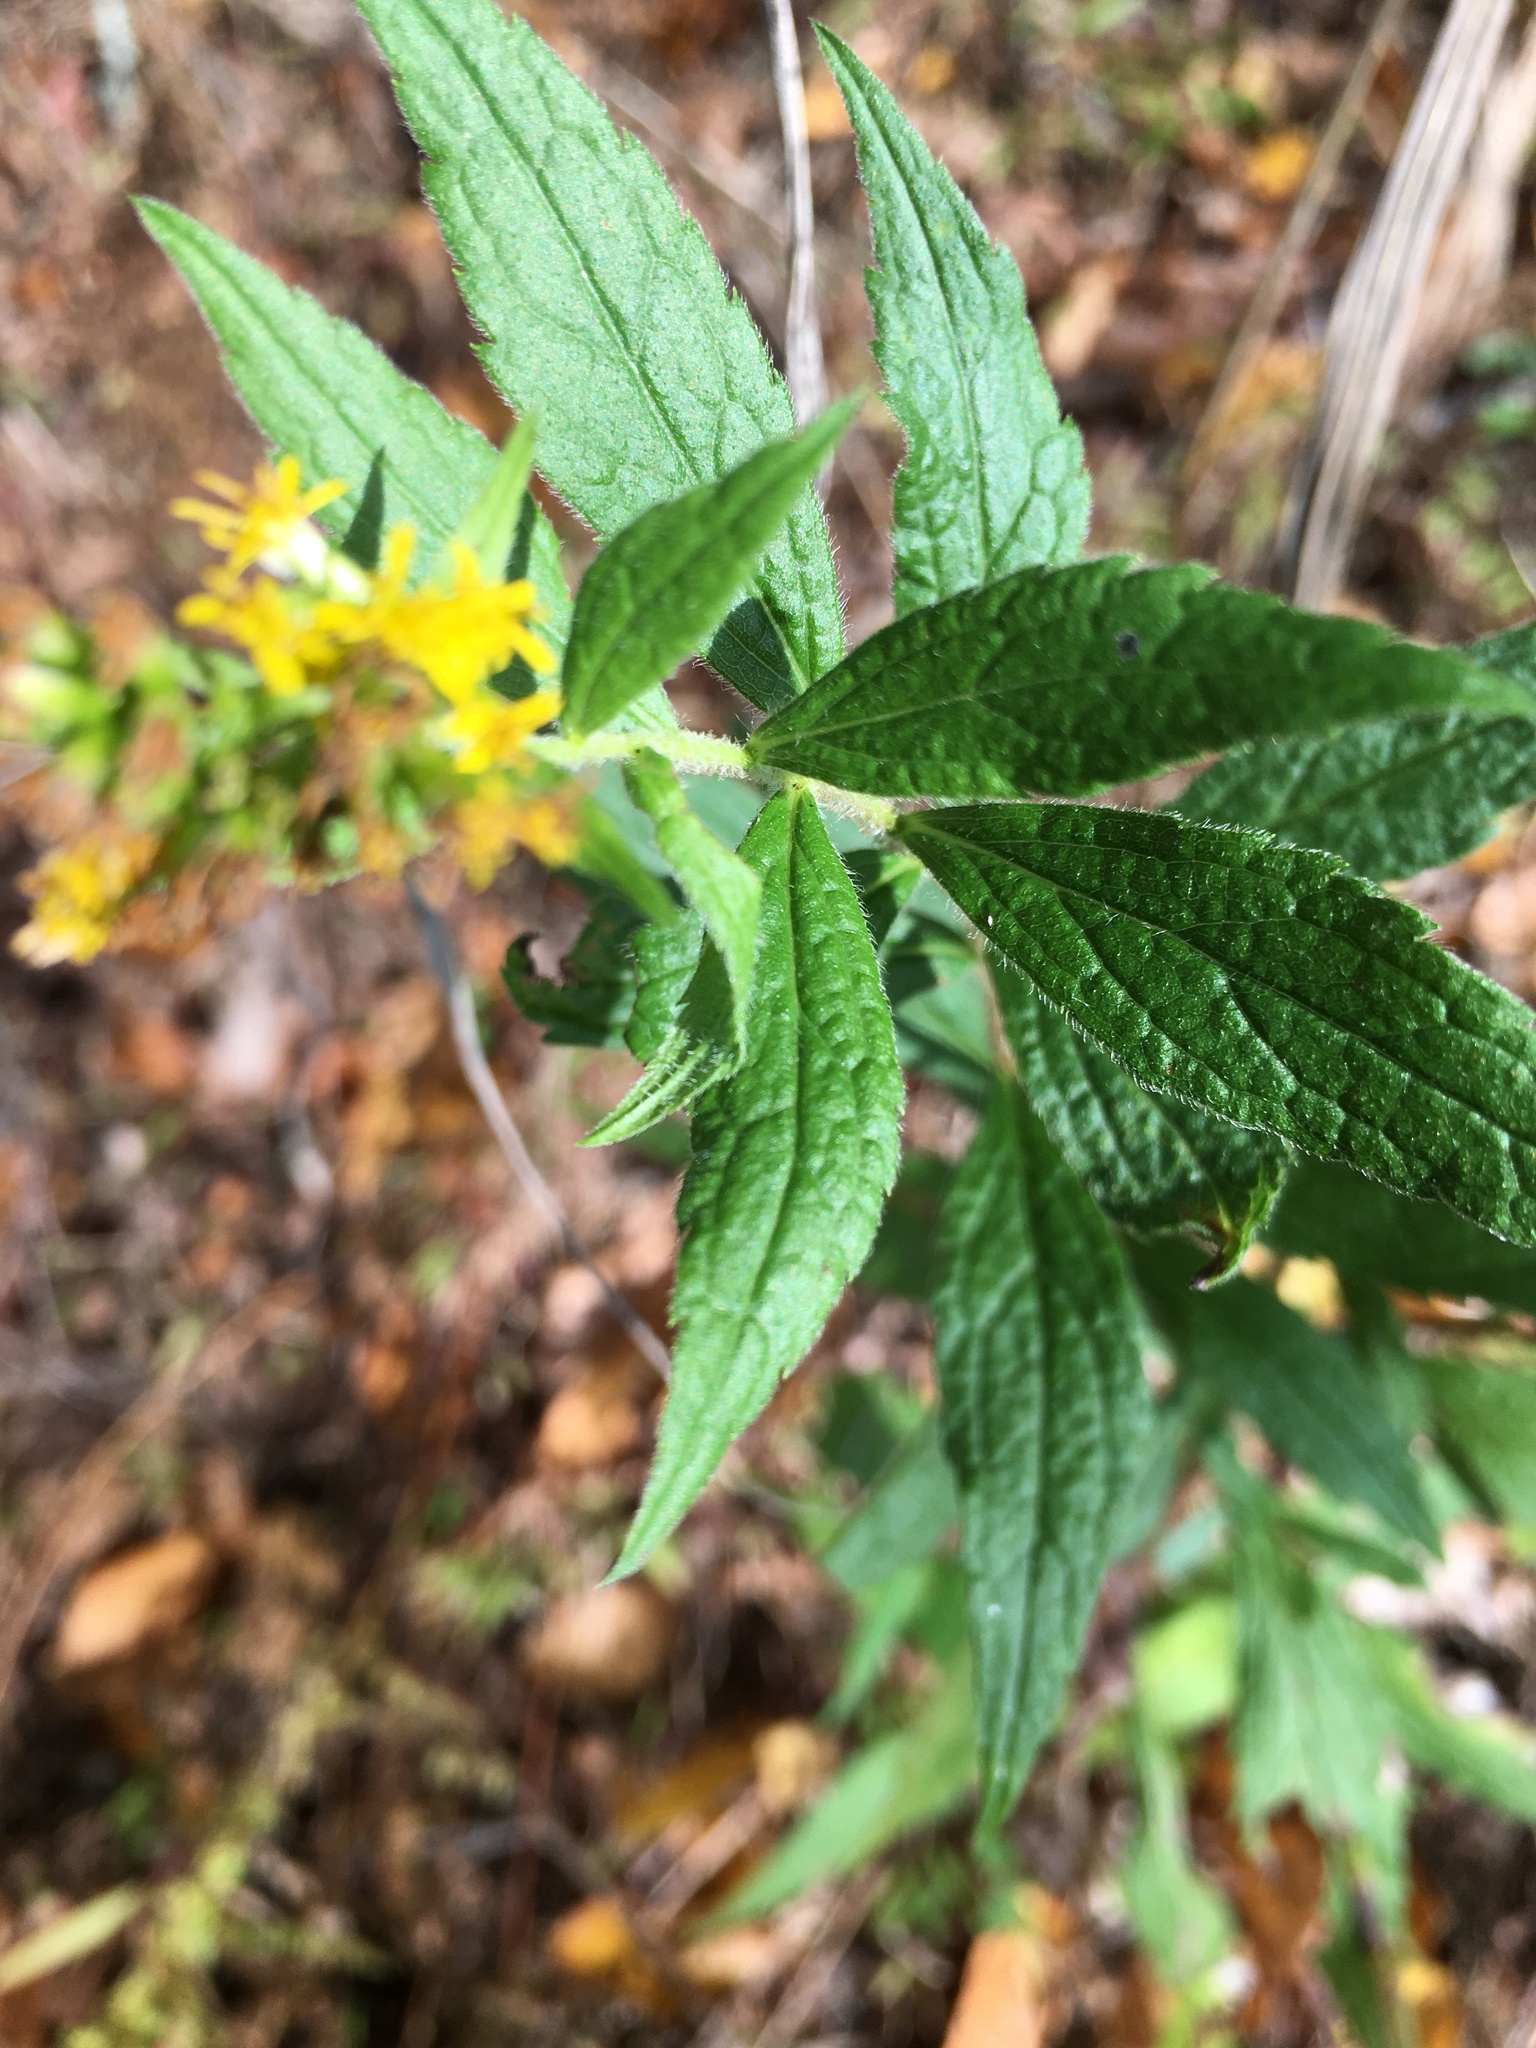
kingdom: Plantae
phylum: Tracheophyta
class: Magnoliopsida
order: Asterales
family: Asteraceae
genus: Solidago
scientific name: Solidago rugosa
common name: Rough-stemmed goldenrod
